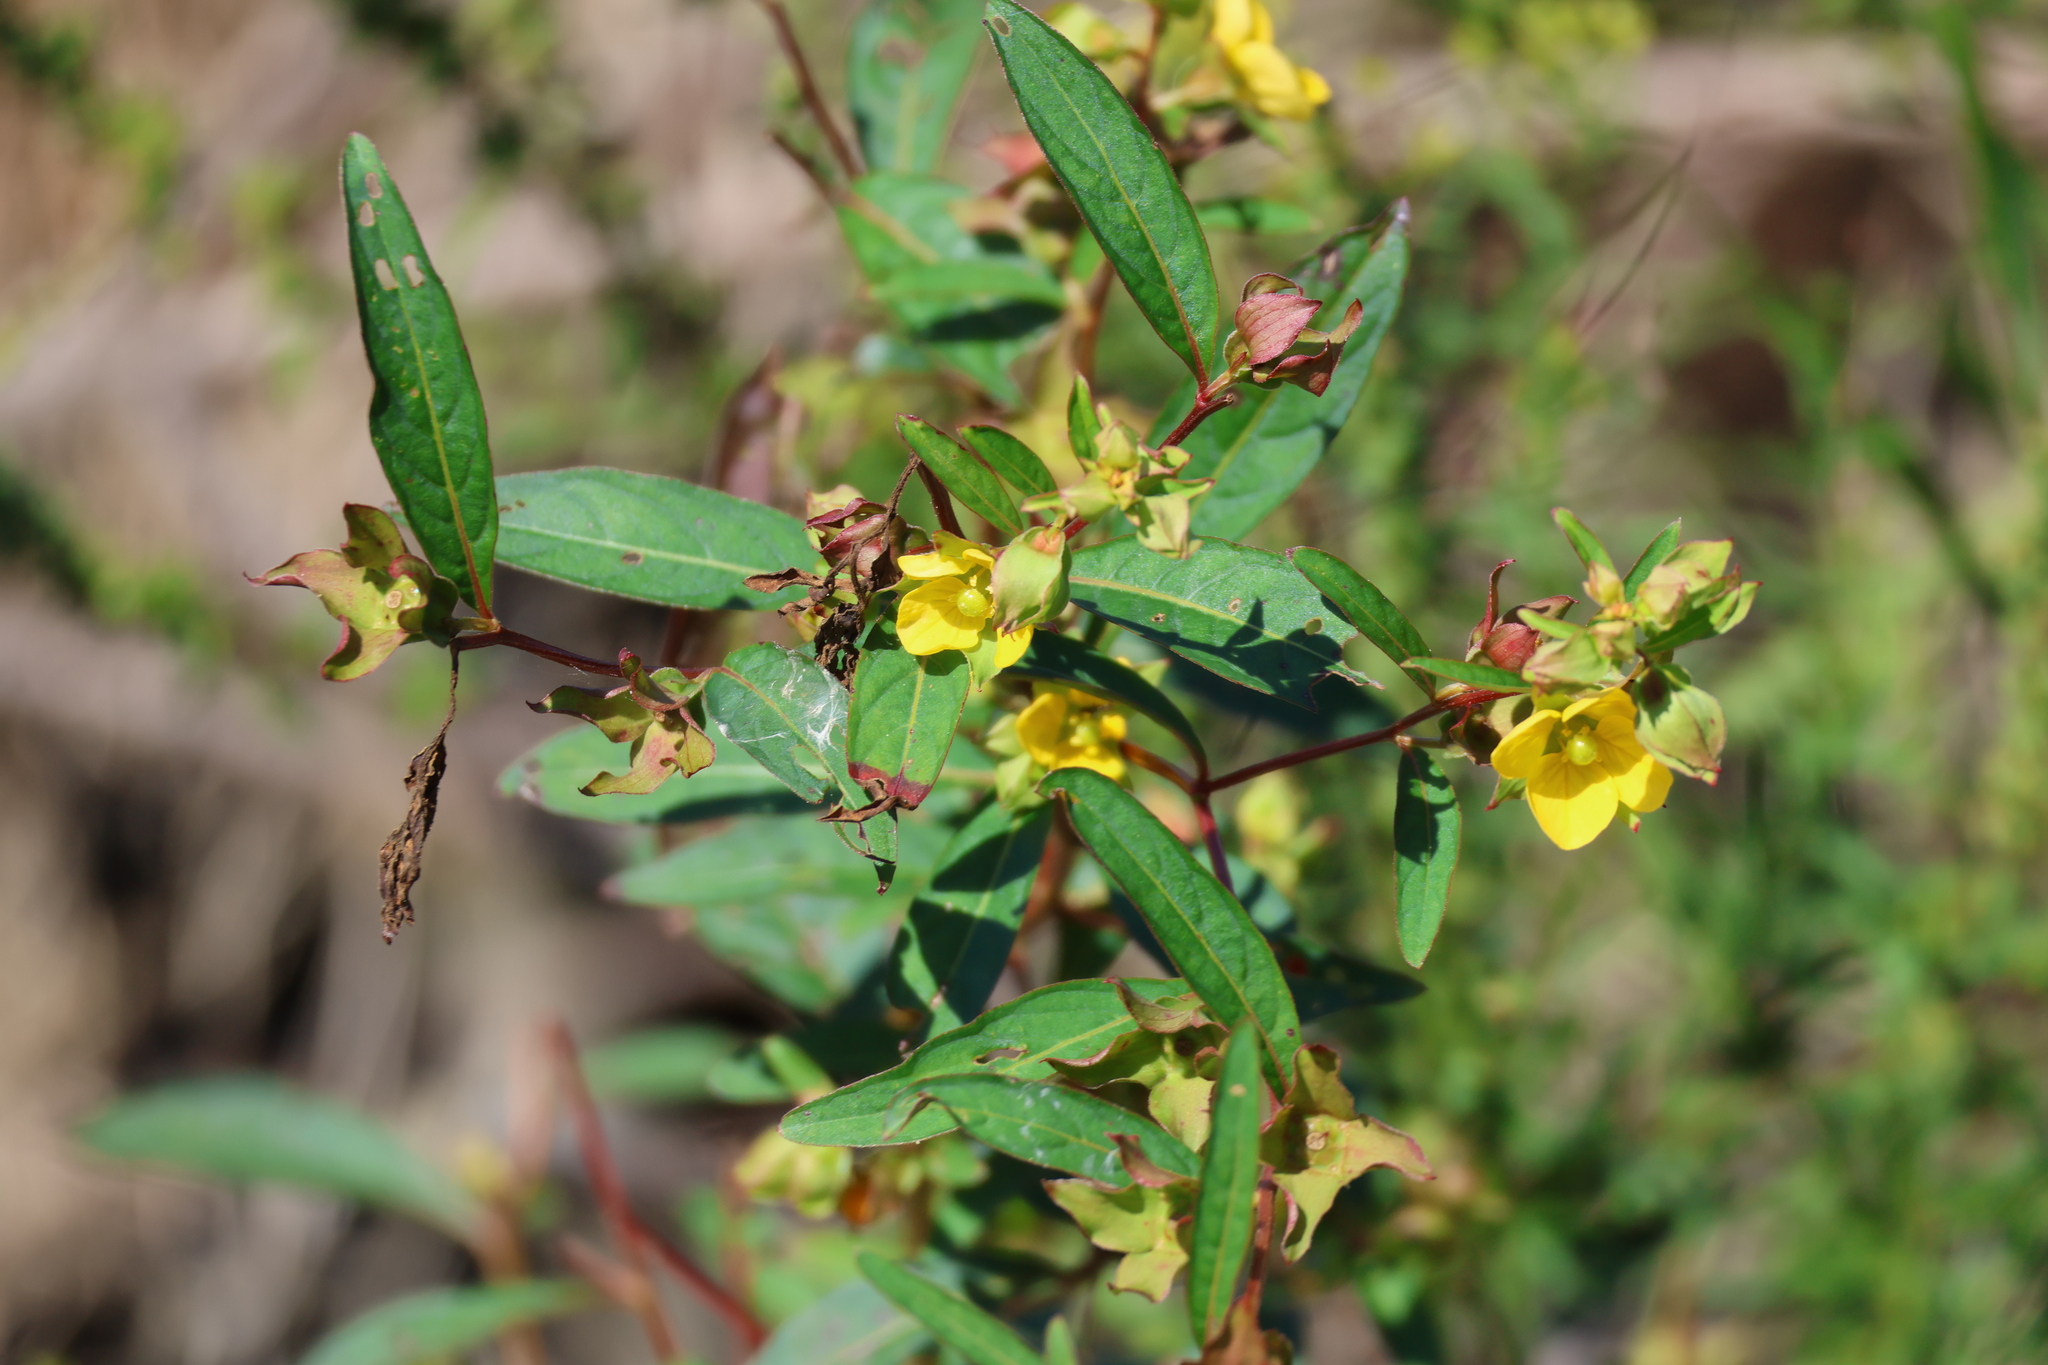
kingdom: Plantae
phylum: Tracheophyta
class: Magnoliopsida
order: Myrtales
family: Onagraceae
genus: Ludwigia
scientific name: Ludwigia alternifolia
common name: Rattlebox
